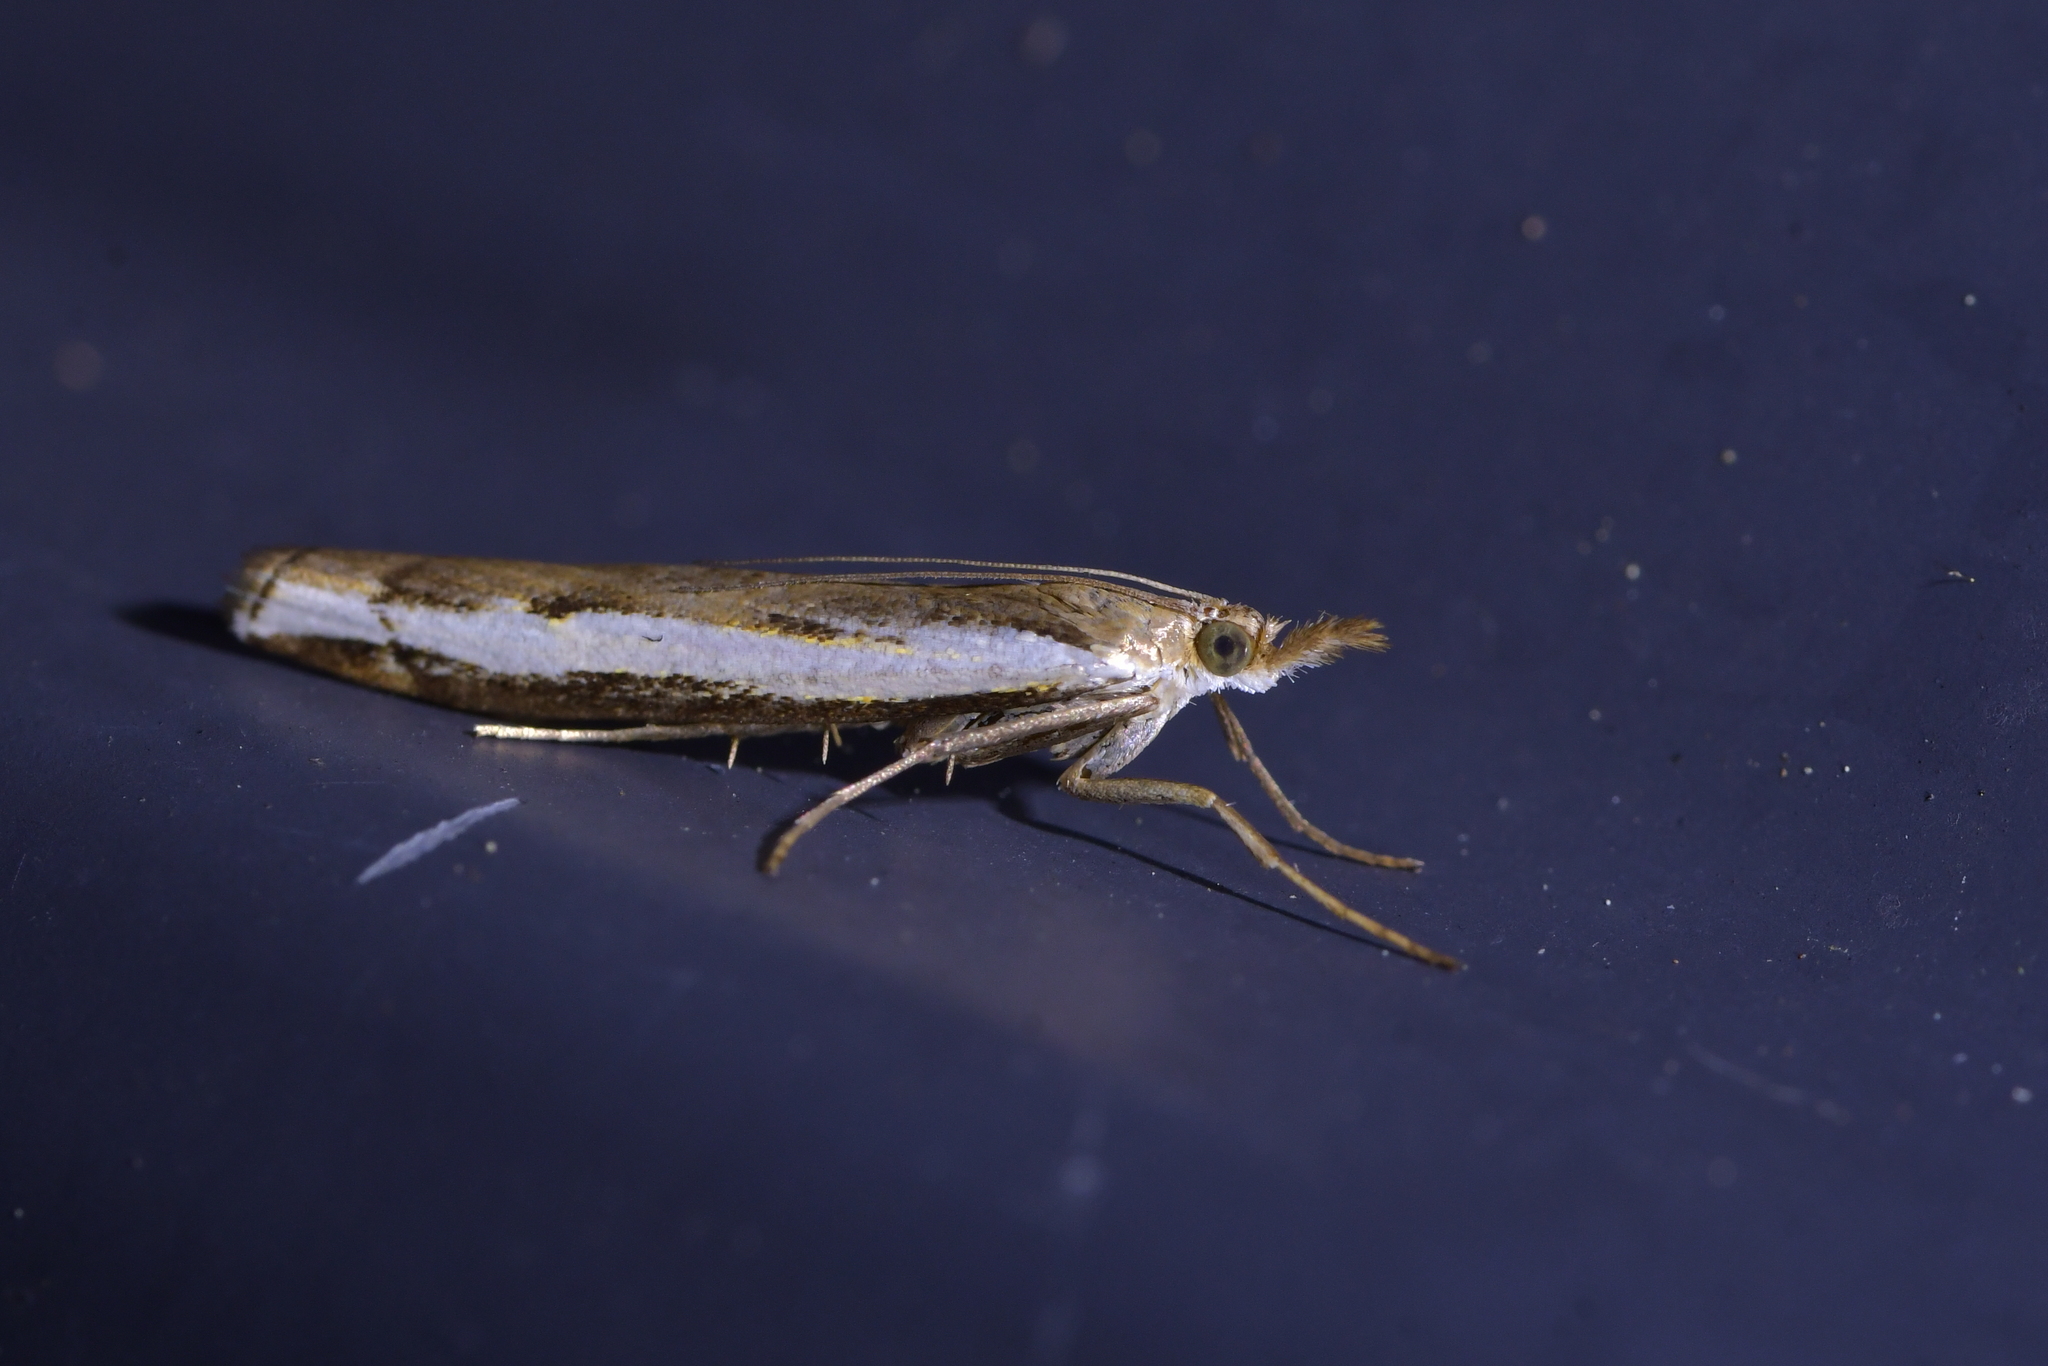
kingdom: Animalia
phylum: Arthropoda
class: Insecta
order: Lepidoptera
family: Crambidae
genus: Orocrambus
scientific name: Orocrambus flexuosellus
